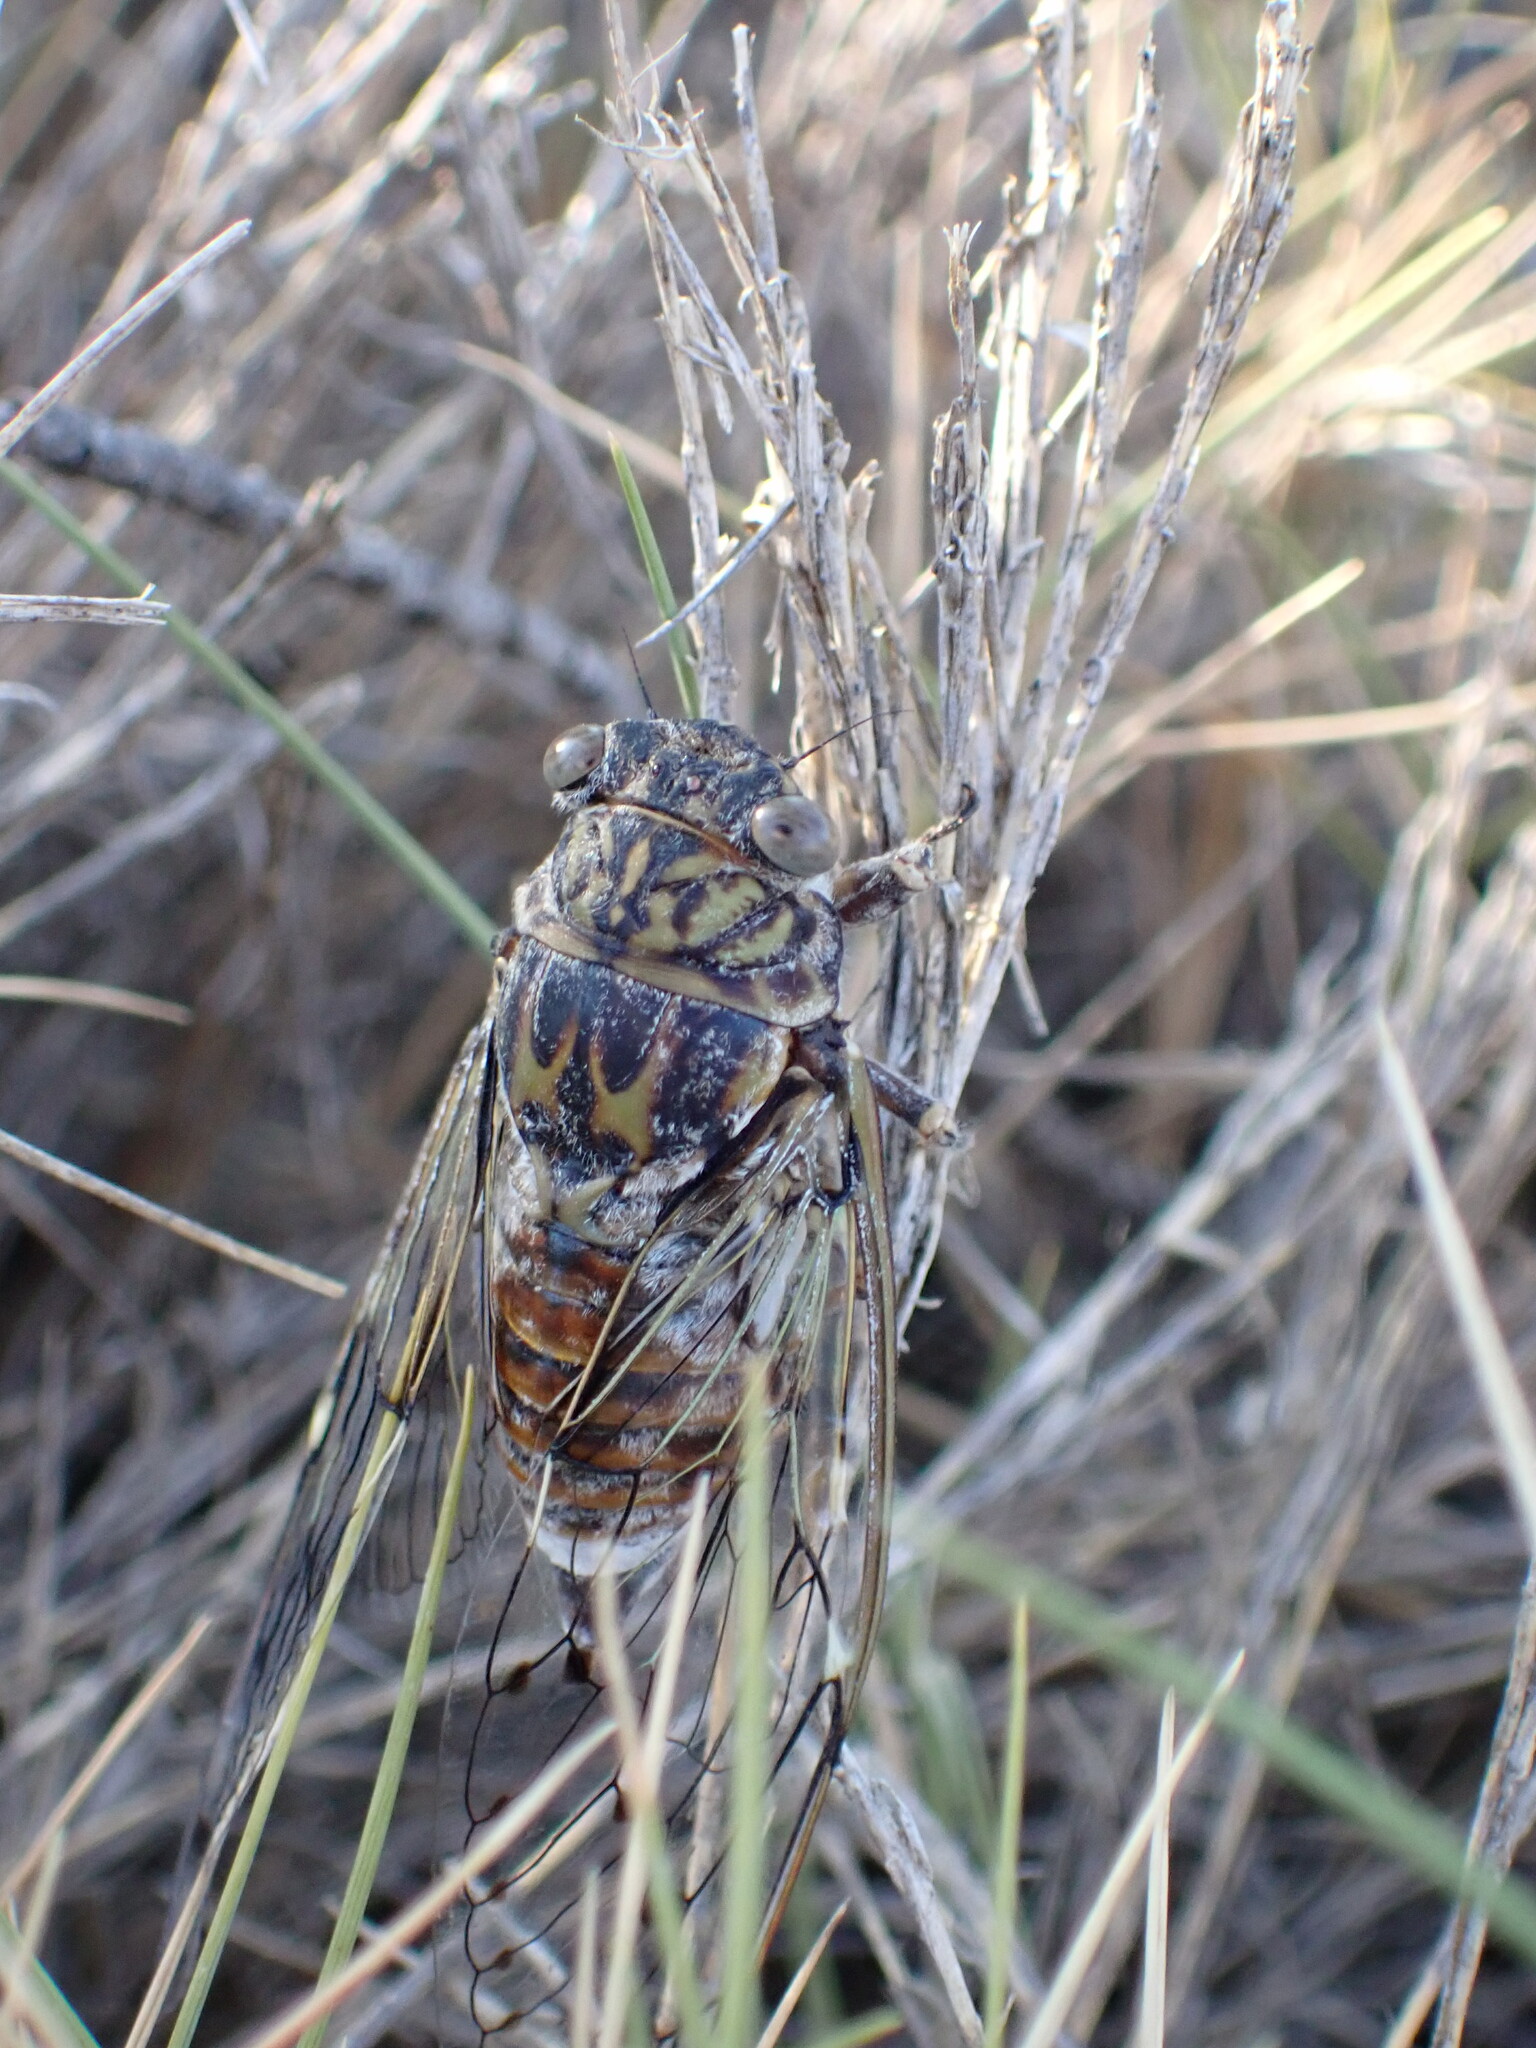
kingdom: Animalia
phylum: Arthropoda
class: Insecta
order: Hemiptera
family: Cicadidae
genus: Cicada
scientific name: Cicada orni
